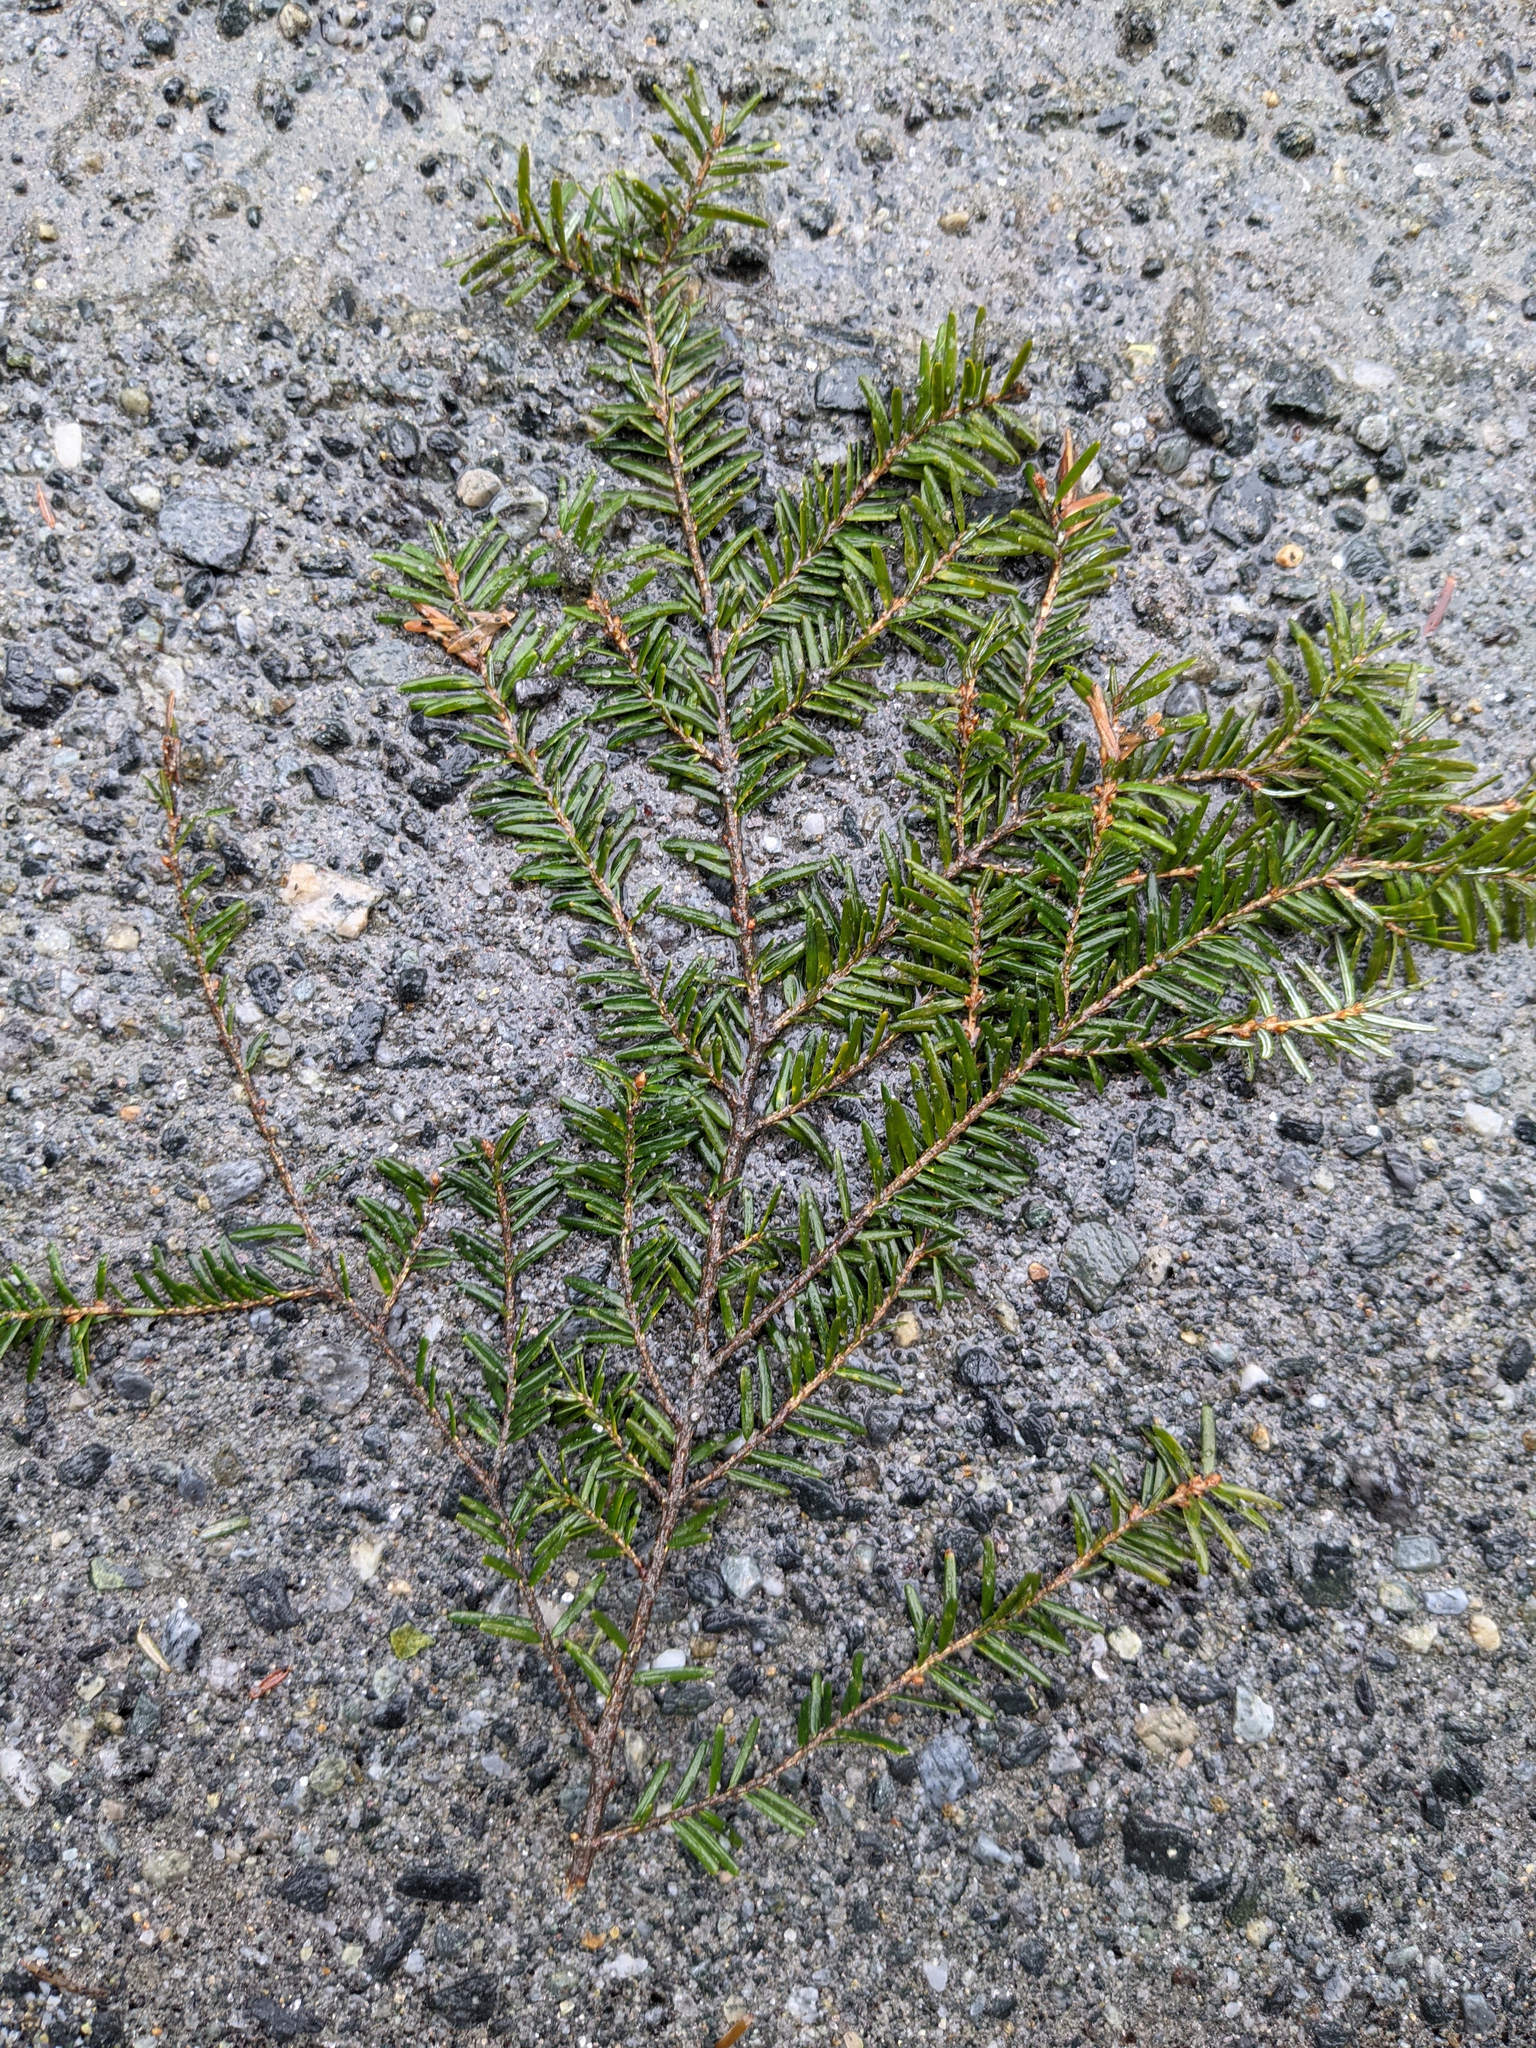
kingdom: Plantae
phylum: Tracheophyta
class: Pinopsida
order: Pinales
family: Pinaceae
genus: Tsuga
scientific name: Tsuga canadensis
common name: Eastern hemlock
